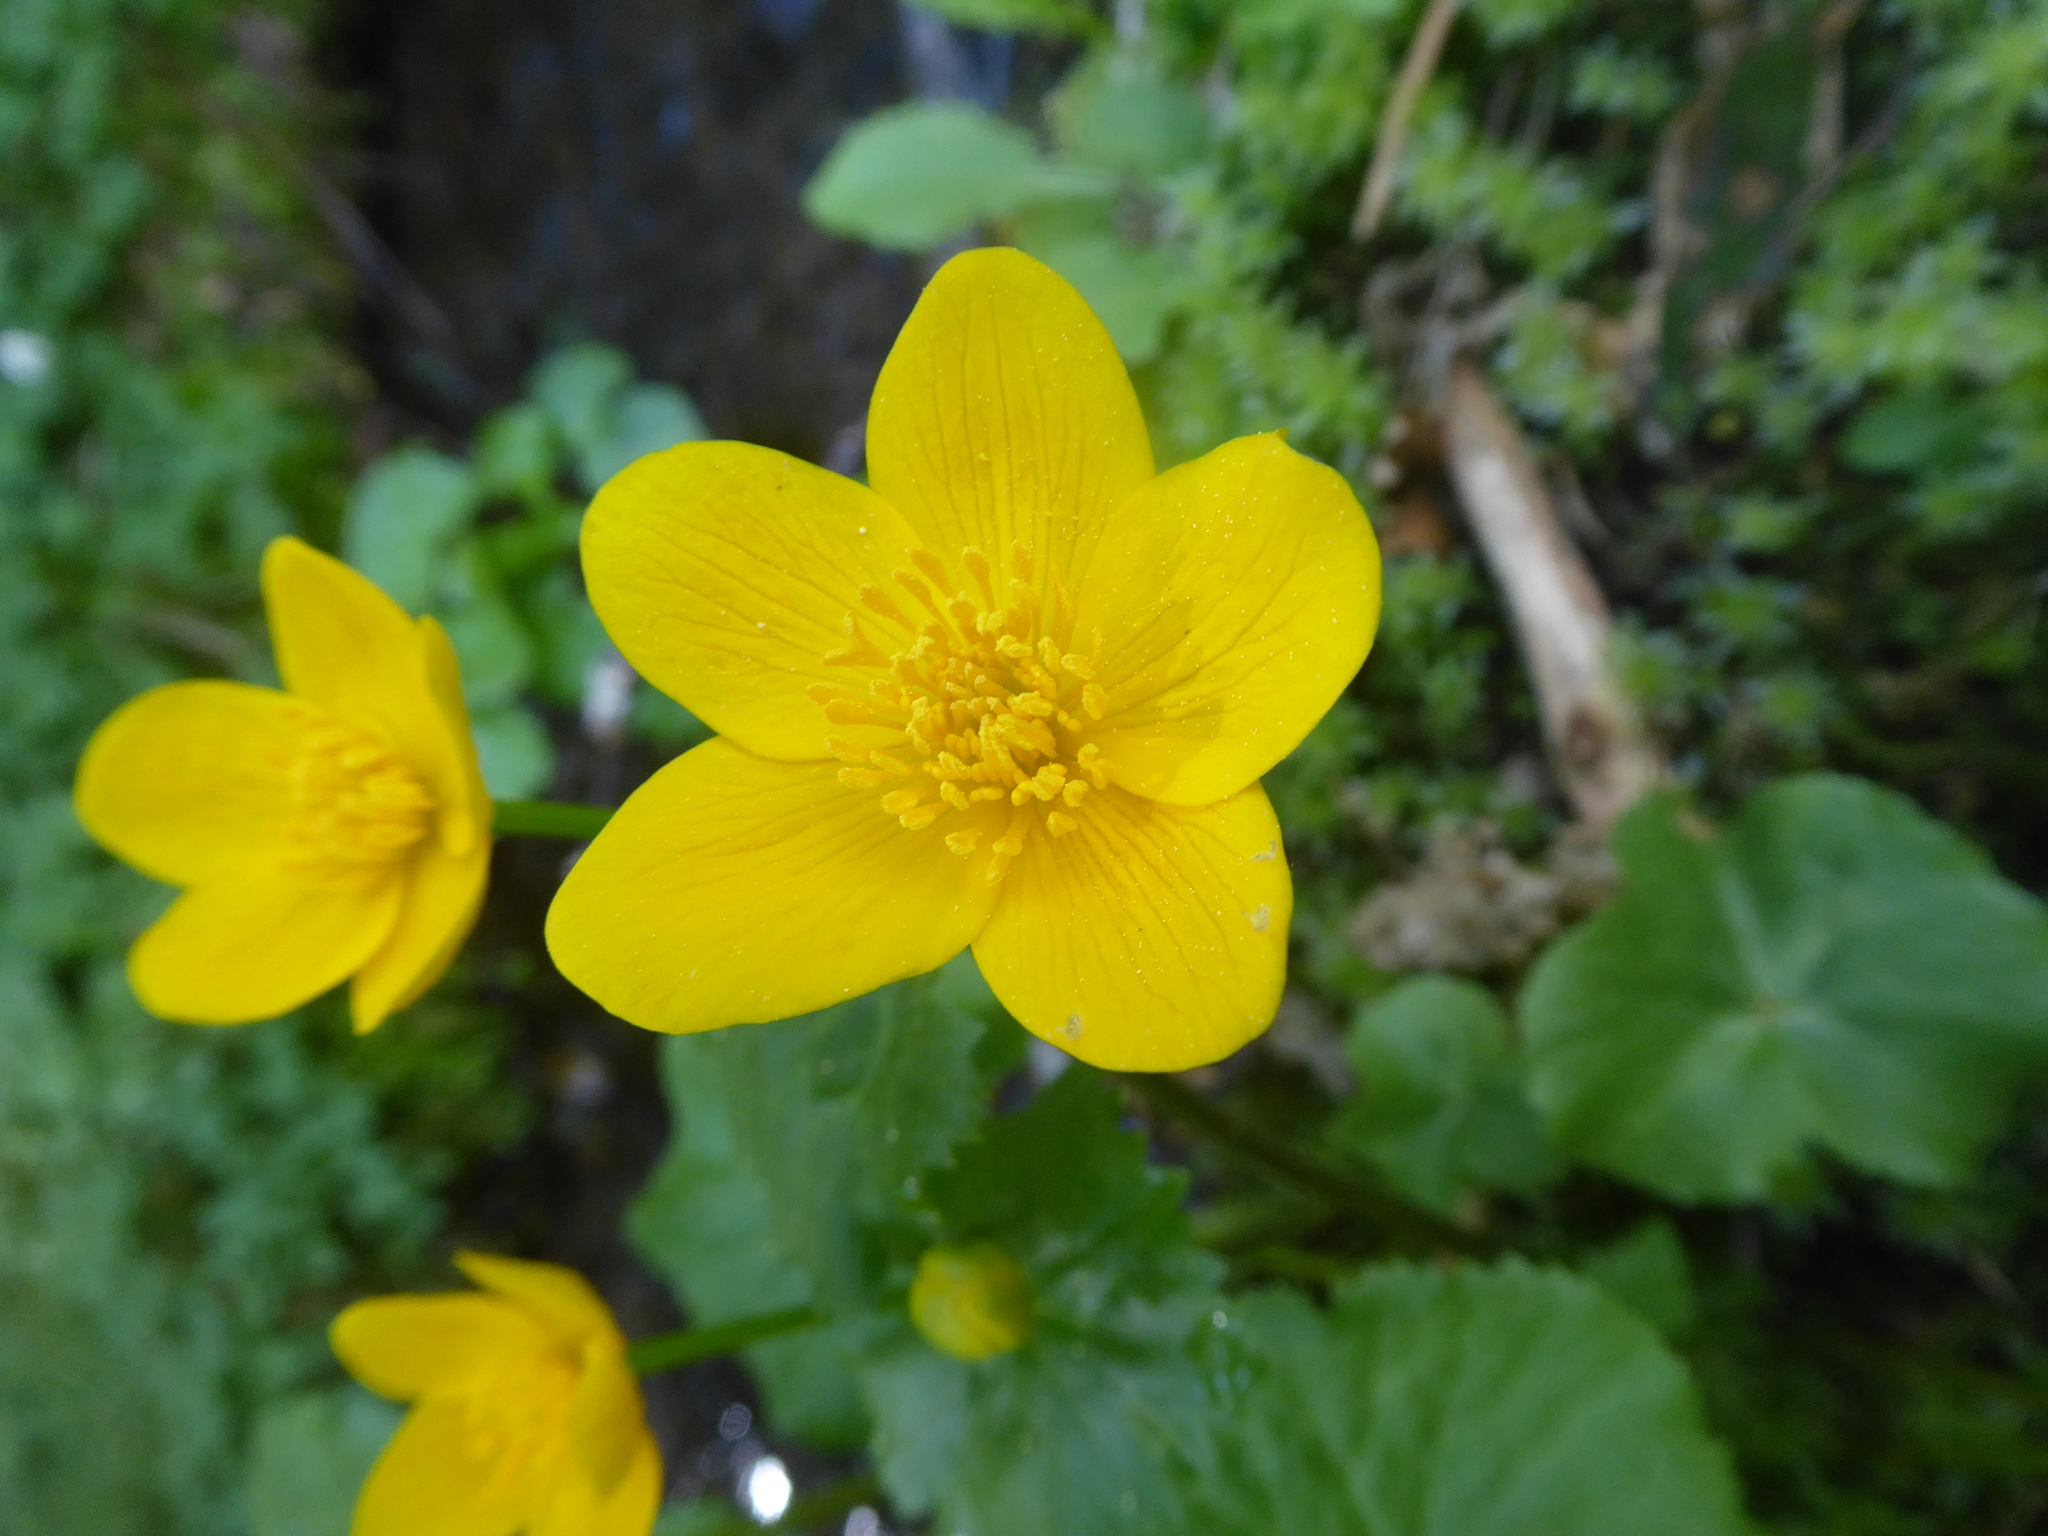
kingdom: Plantae
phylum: Tracheophyta
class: Magnoliopsida
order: Ranunculales
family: Ranunculaceae
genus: Caltha
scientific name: Caltha palustris
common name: Marsh marigold
